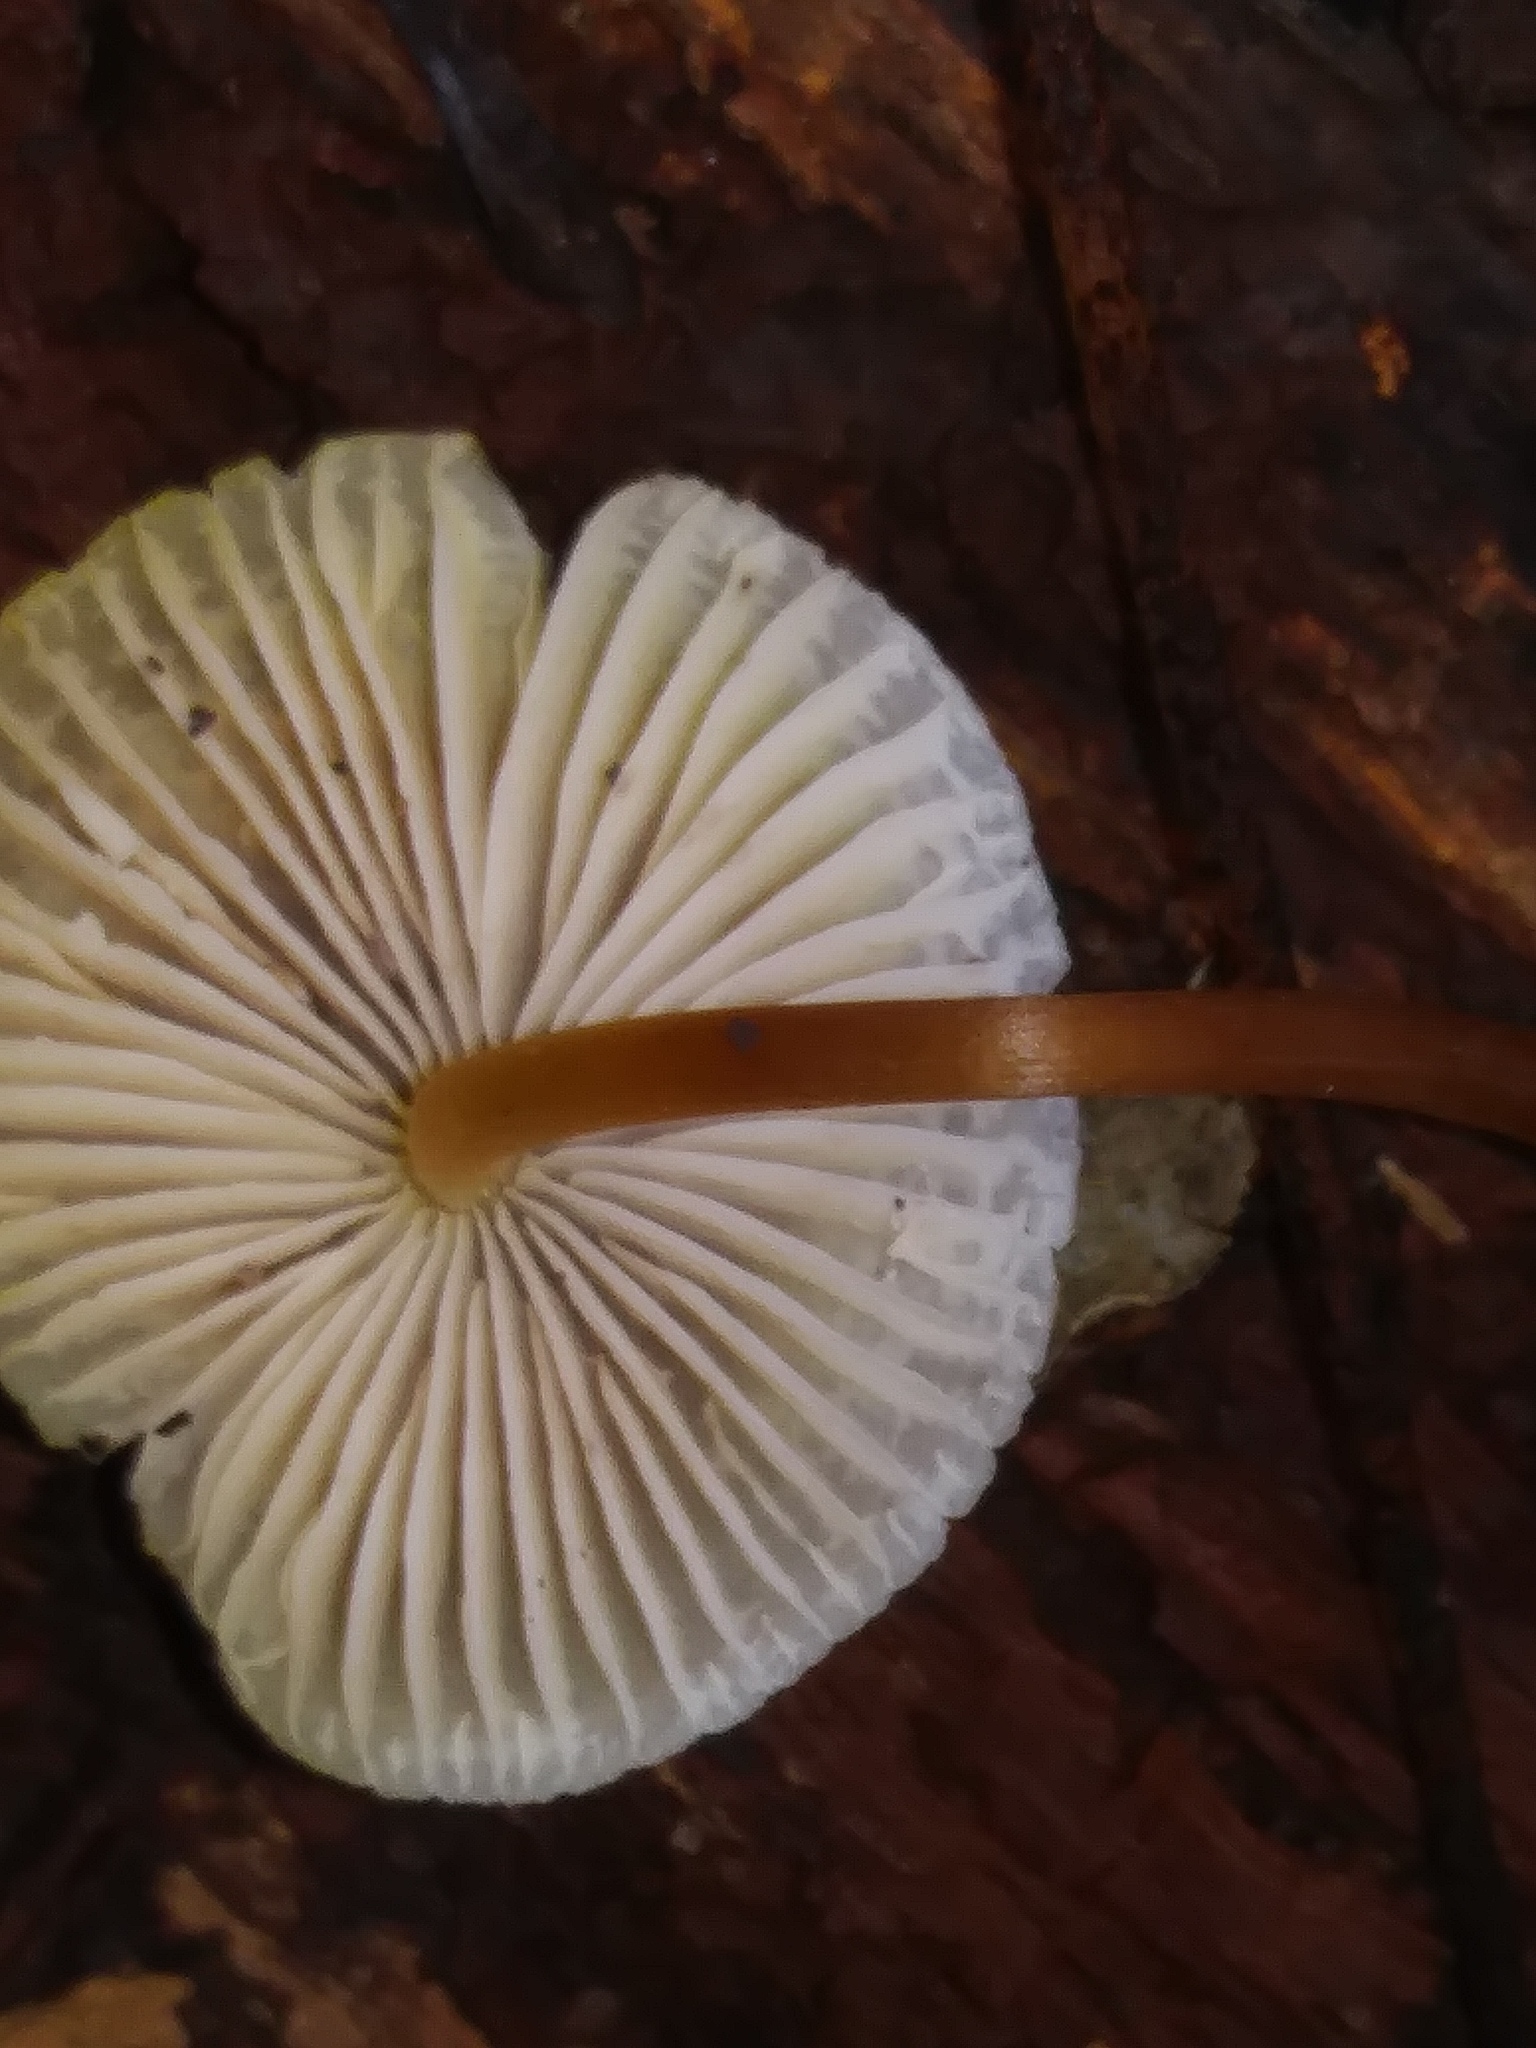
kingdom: Fungi
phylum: Basidiomycota
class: Agaricomycetes
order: Agaricales
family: Mycenaceae
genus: Mycena
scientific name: Mycena atkinsoniana
